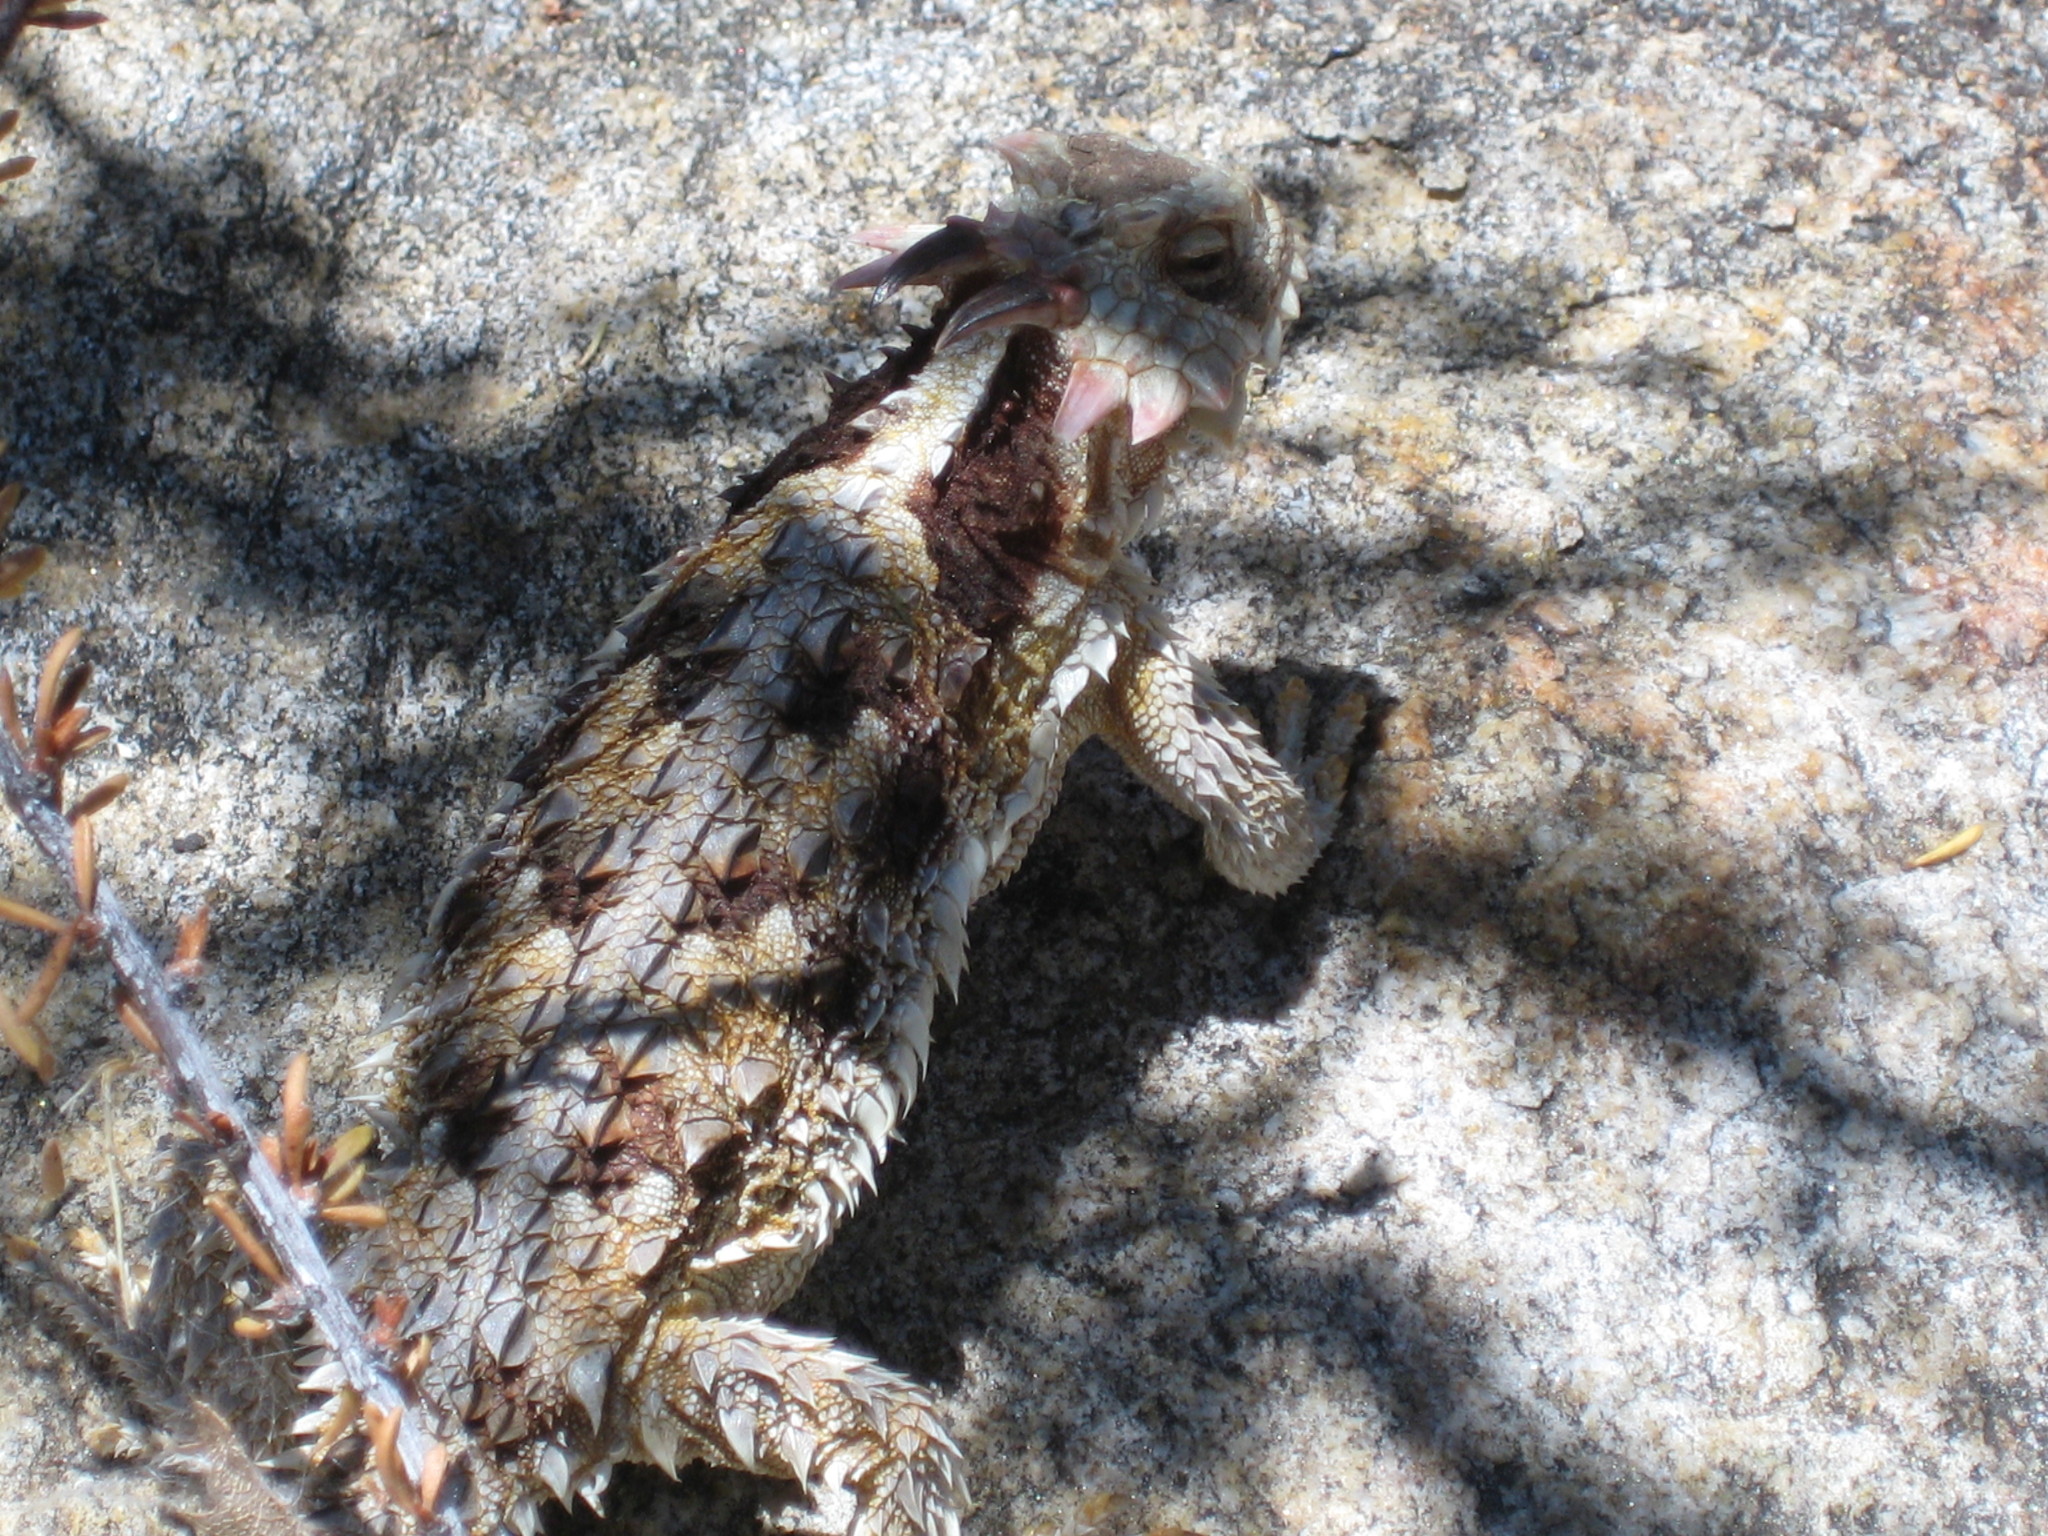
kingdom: Animalia
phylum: Chordata
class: Squamata
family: Phrynosomatidae
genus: Phrynosoma
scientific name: Phrynosoma blainvillii
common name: San diego horned lizard
